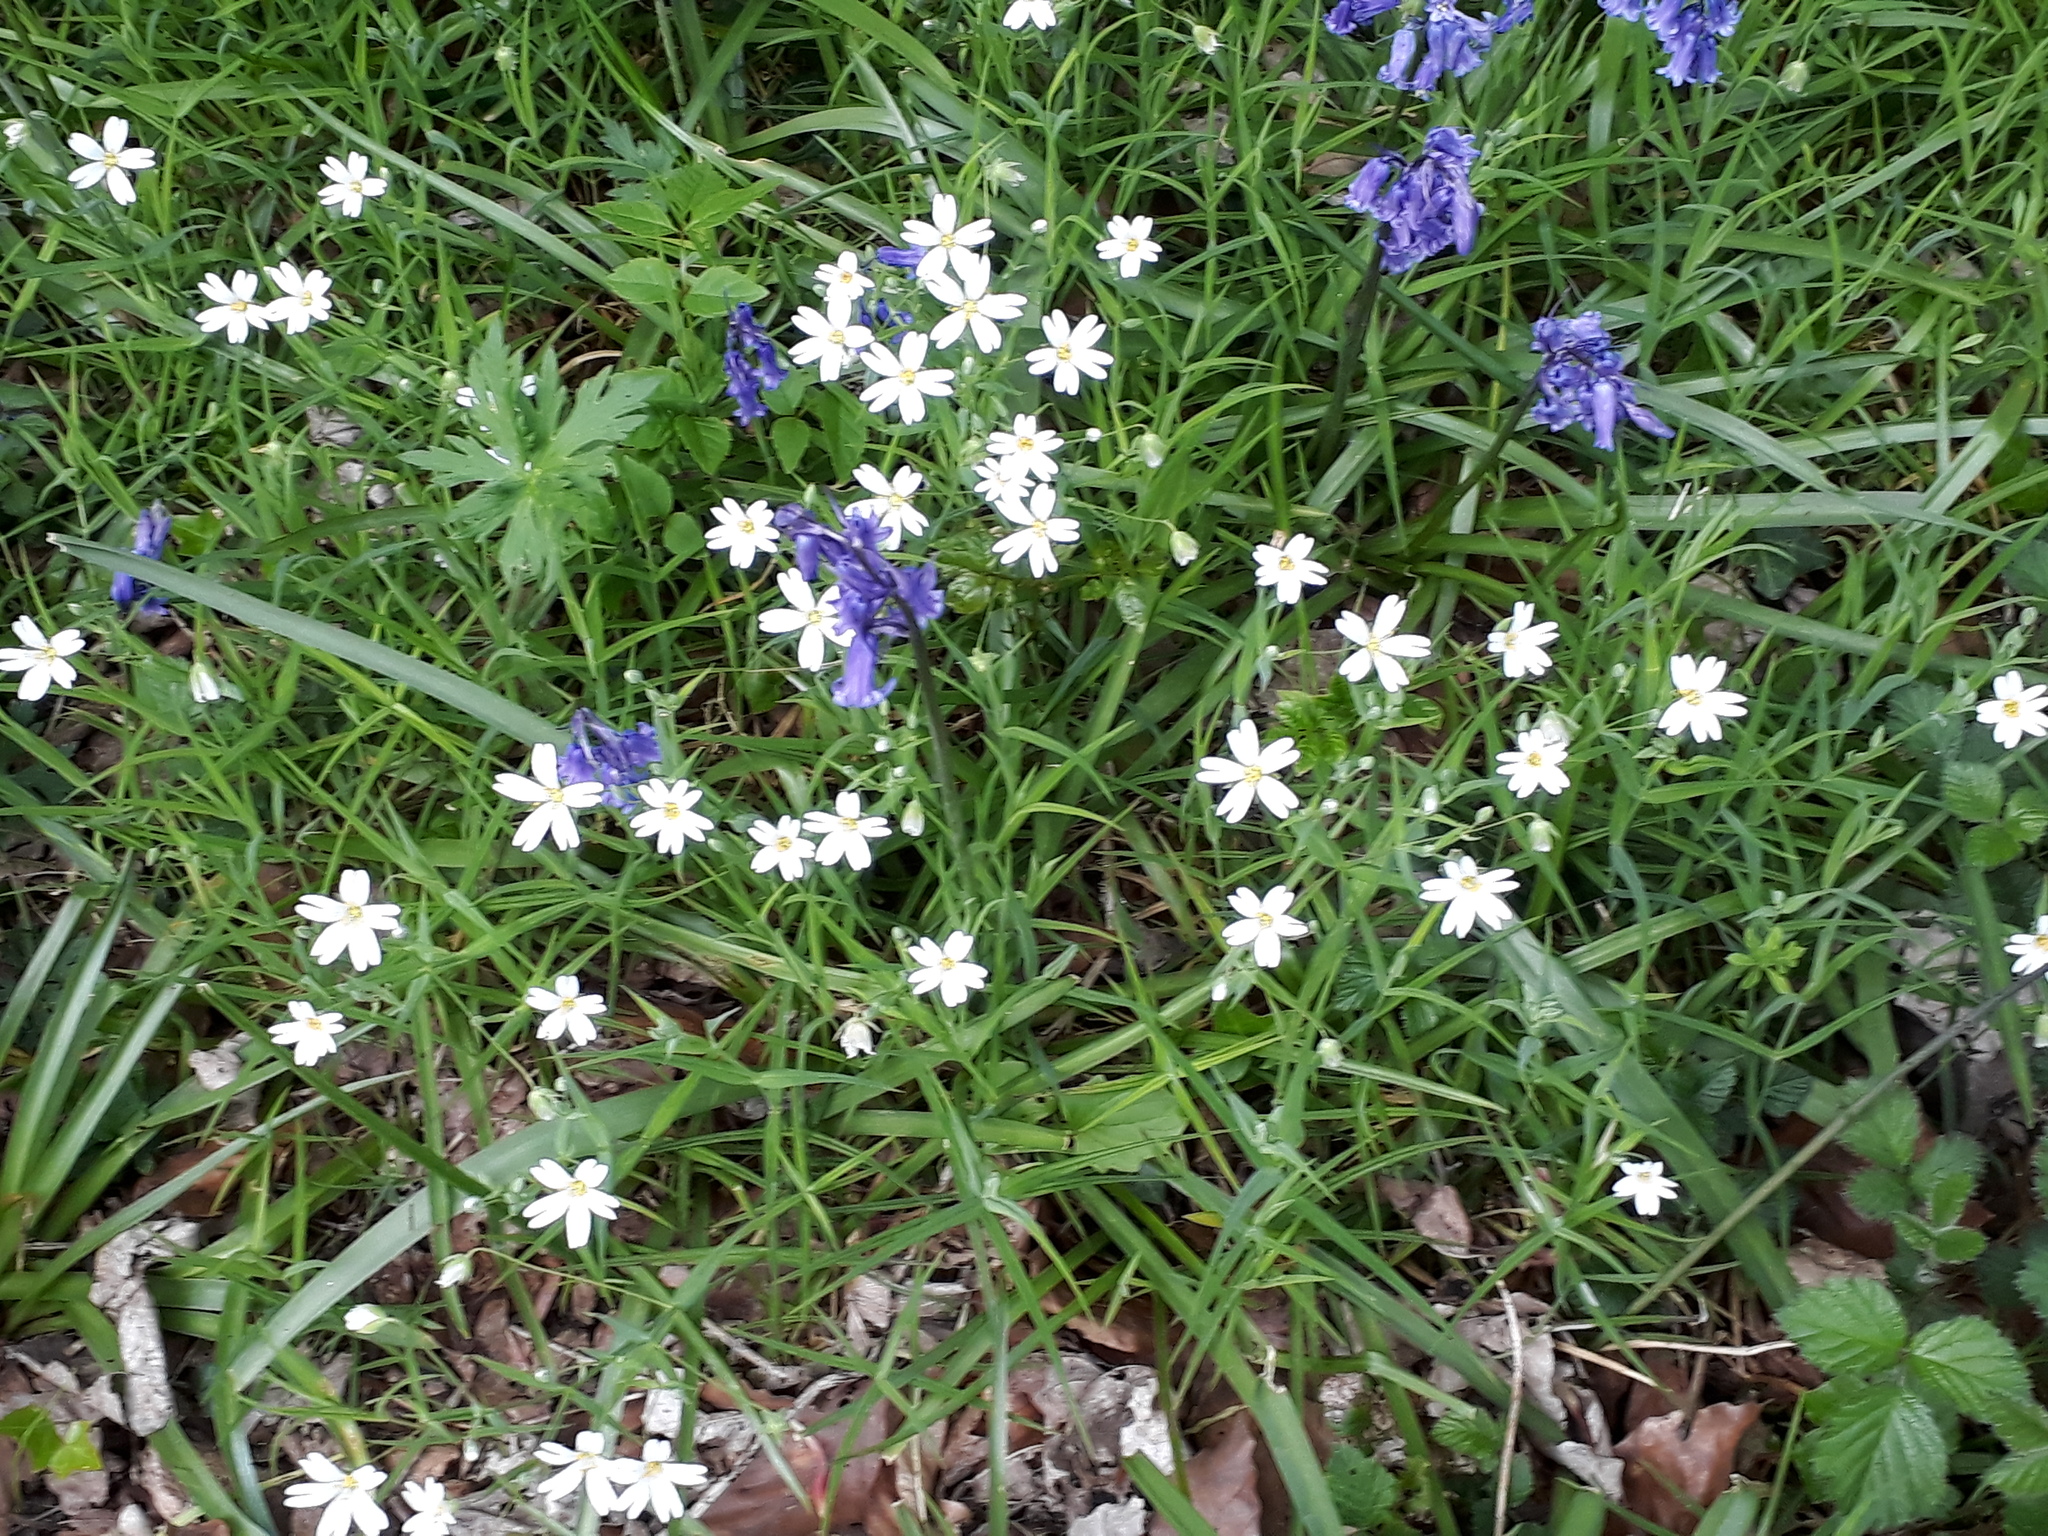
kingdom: Plantae
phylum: Tracheophyta
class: Magnoliopsida
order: Caryophyllales
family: Caryophyllaceae
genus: Rabelera
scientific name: Rabelera holostea
